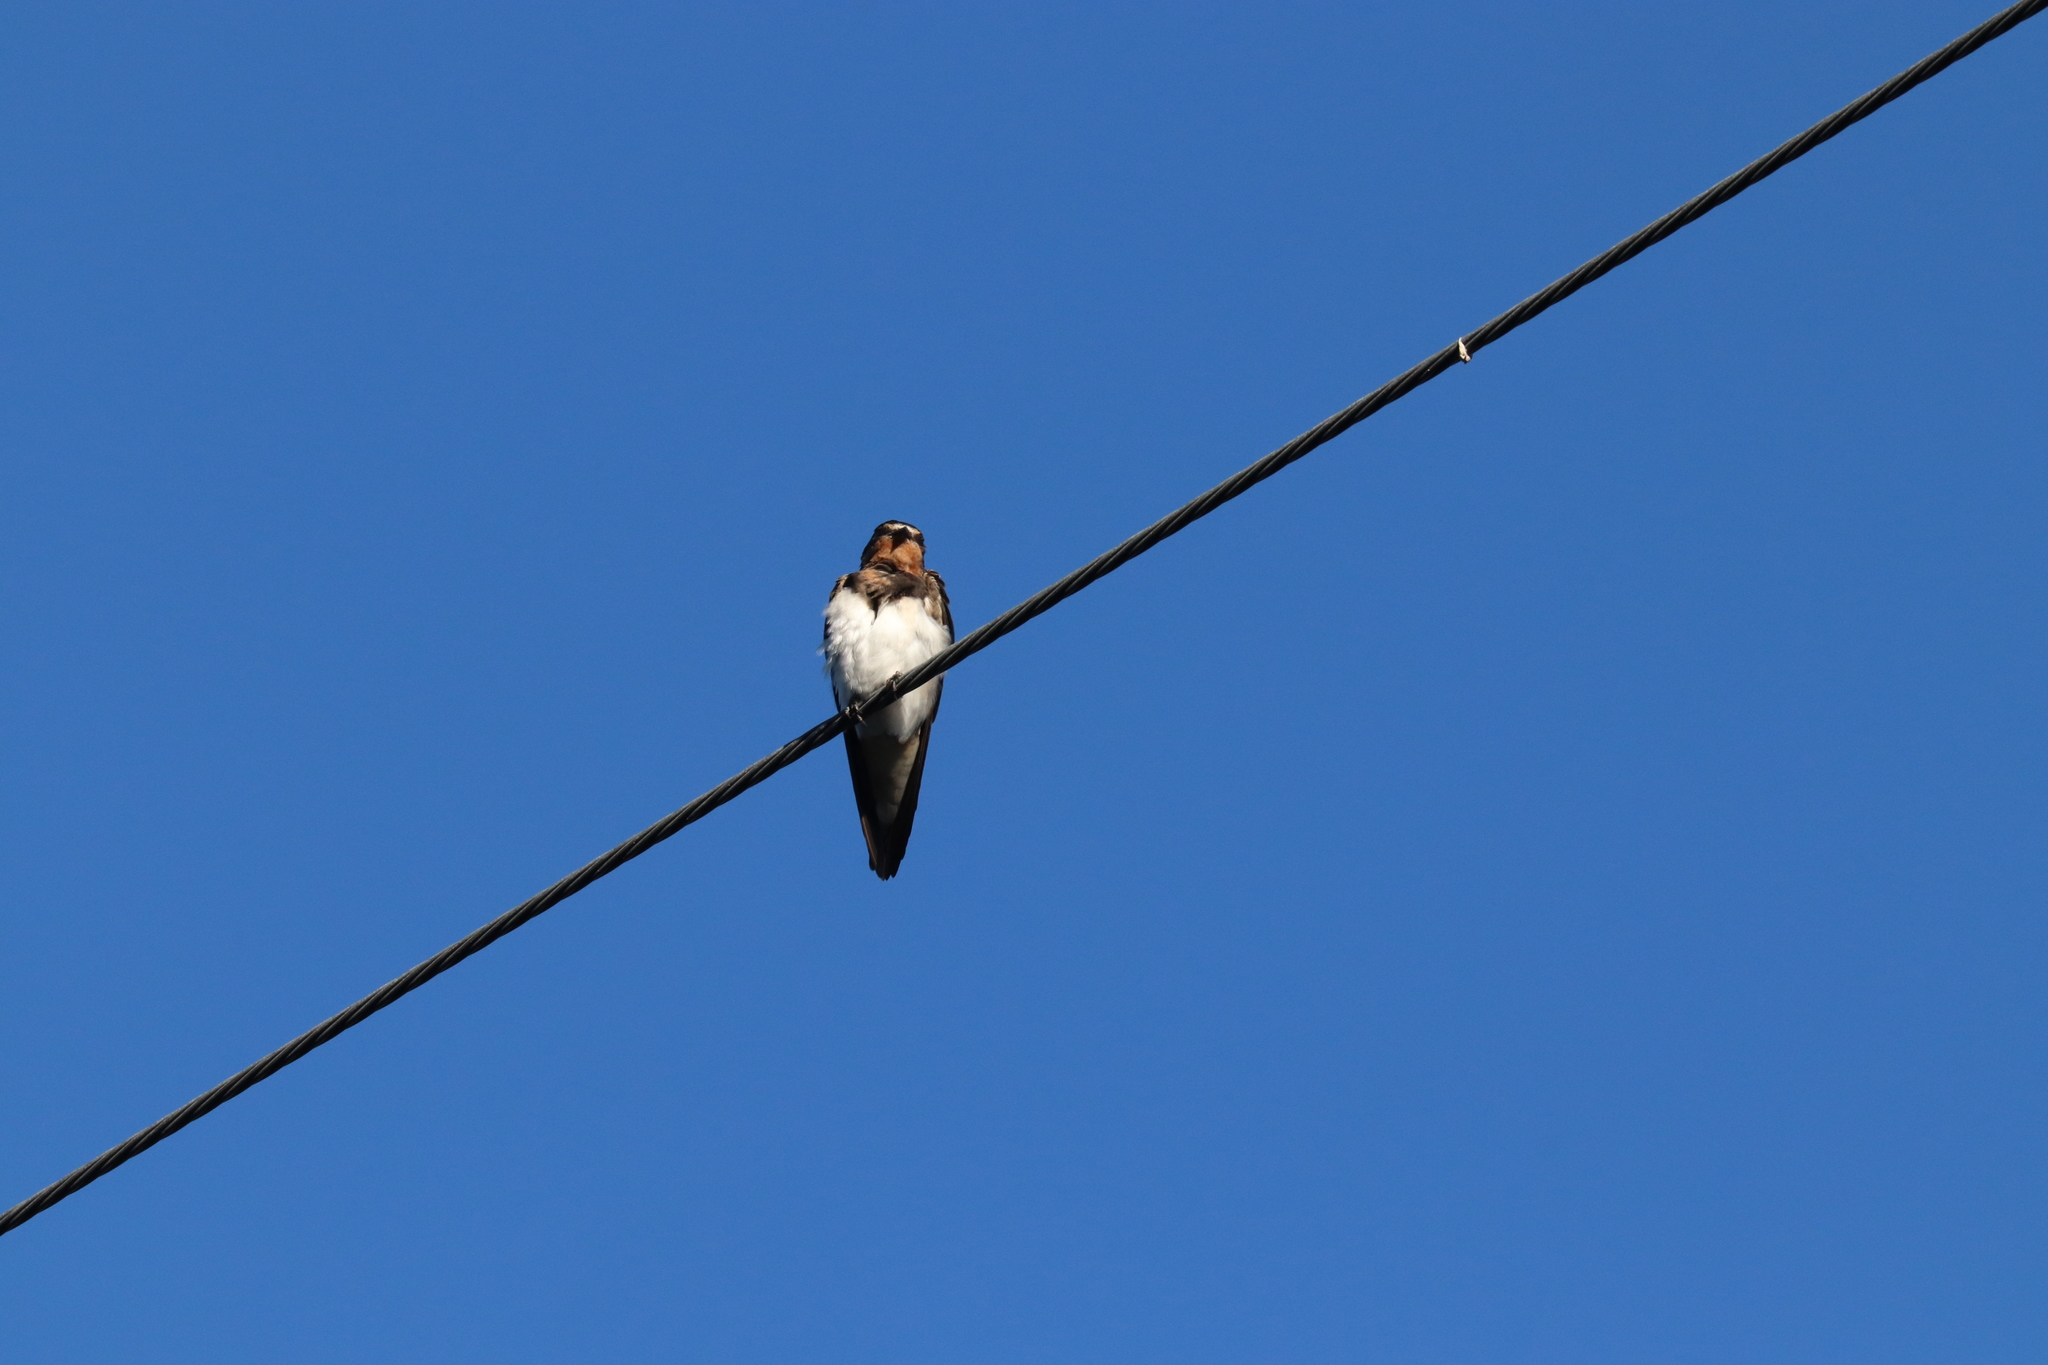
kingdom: Animalia
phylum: Chordata
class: Aves
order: Passeriformes
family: Hirundinidae
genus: Hirundo
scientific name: Hirundo rustica
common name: Barn swallow
